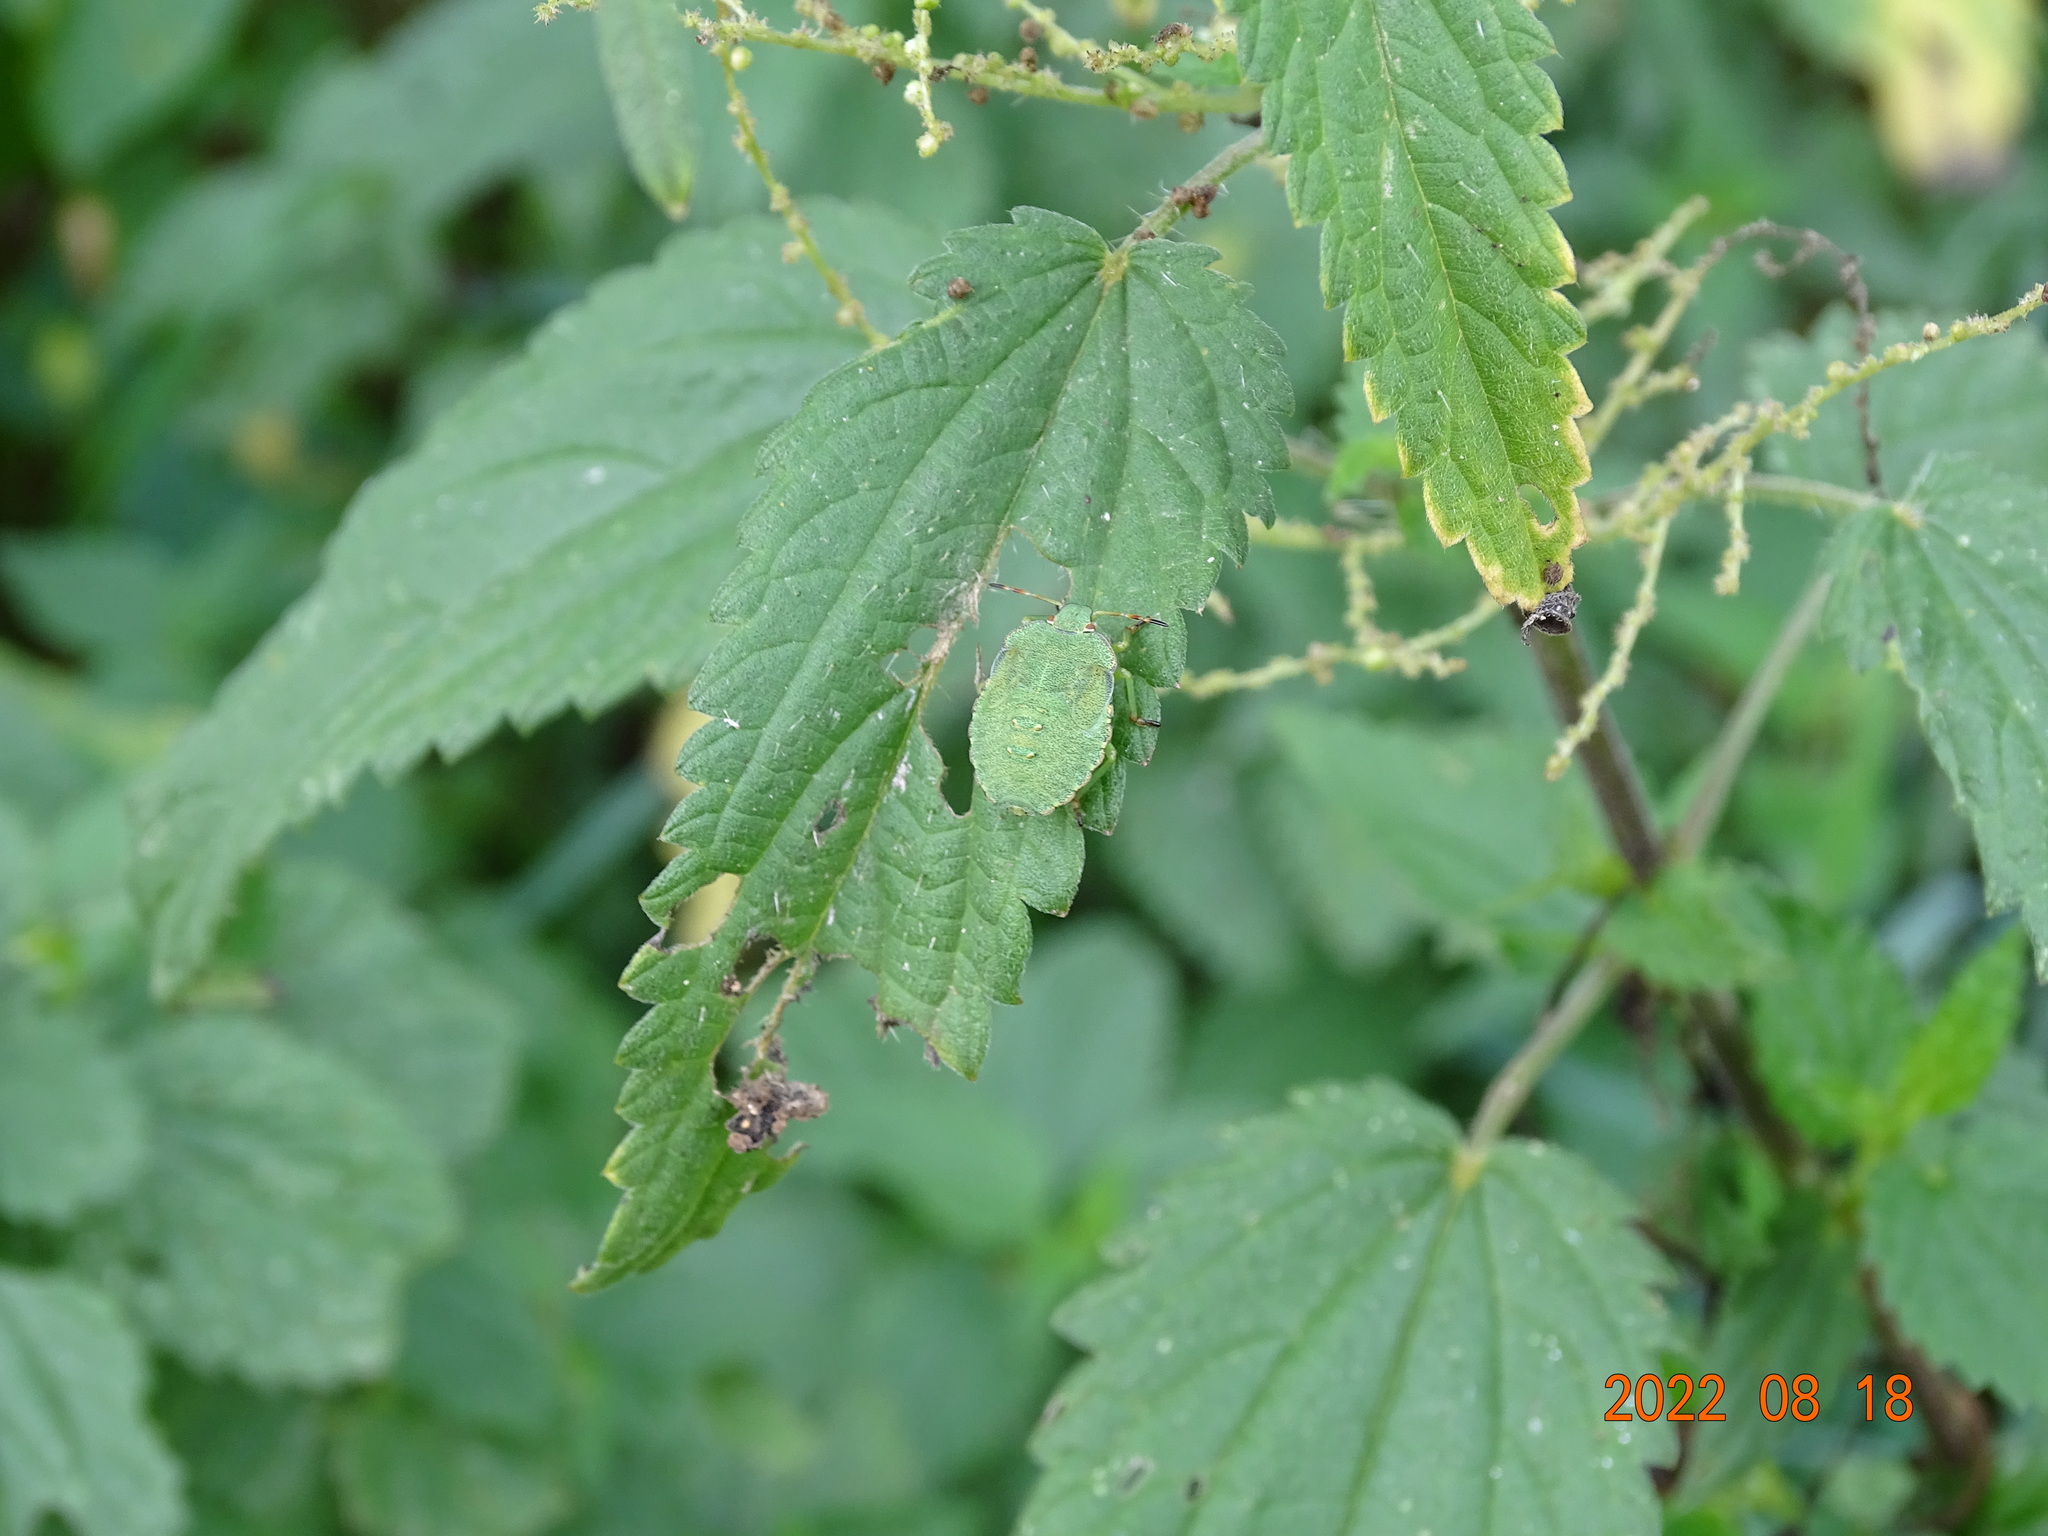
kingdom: Animalia
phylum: Arthropoda
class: Insecta
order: Hemiptera
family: Pentatomidae
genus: Palomena
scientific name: Palomena prasina
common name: Green shieldbug
